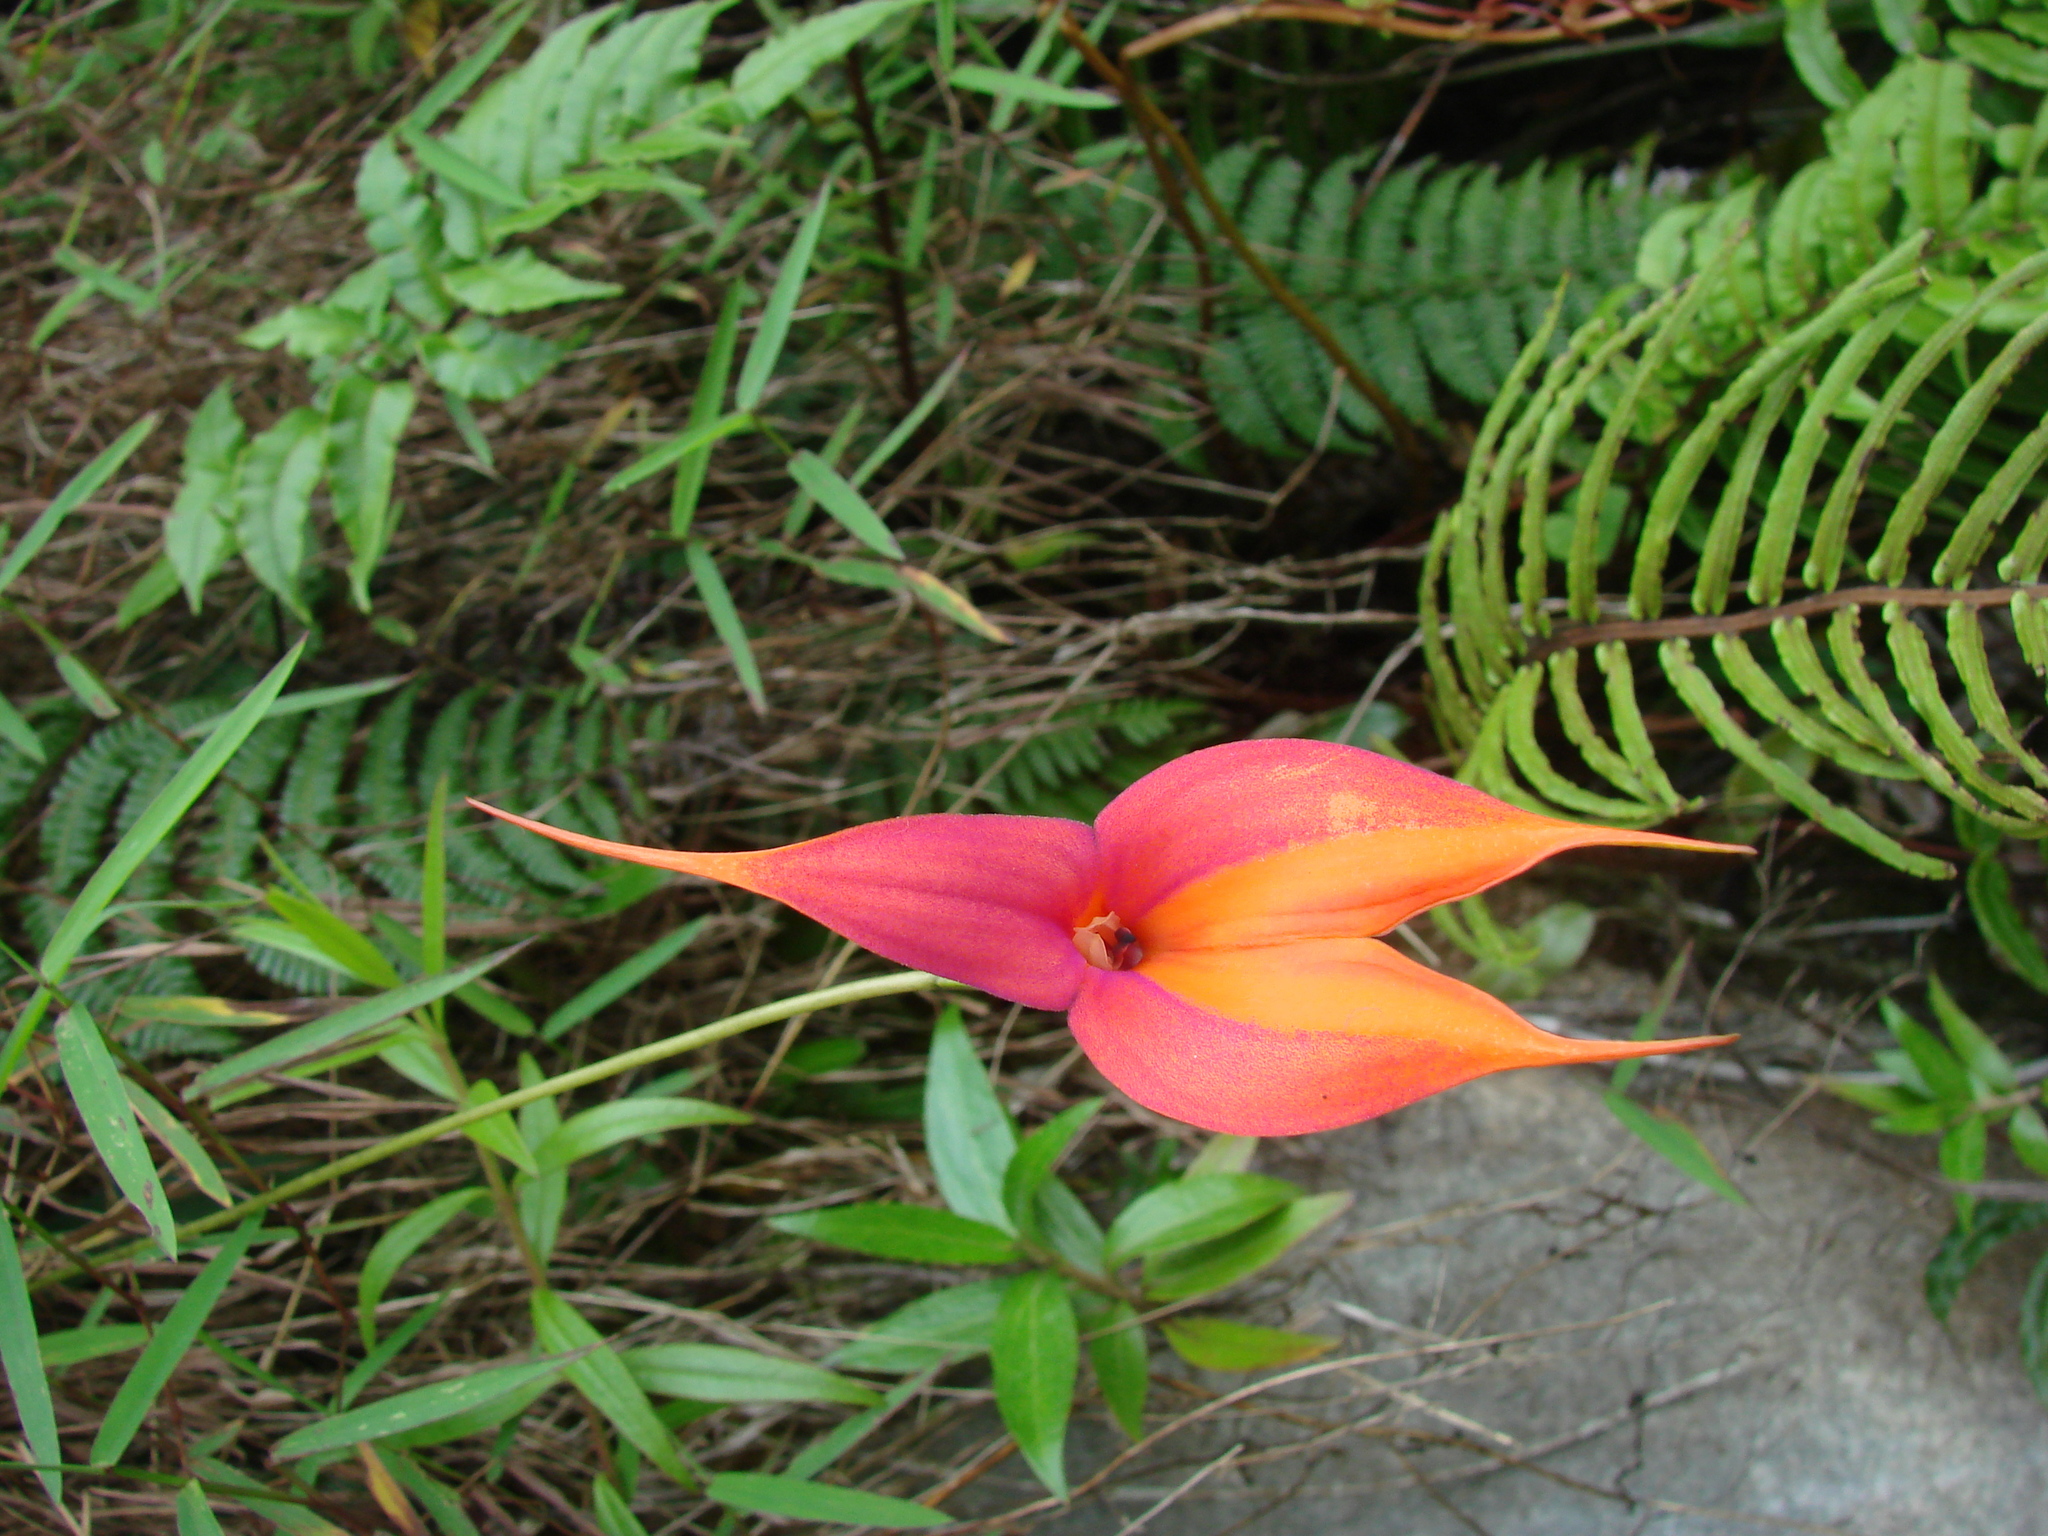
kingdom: Plantae
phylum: Tracheophyta
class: Liliopsida
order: Asparagales
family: Orchidaceae
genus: Masdevallia
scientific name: Masdevallia veitchiana
